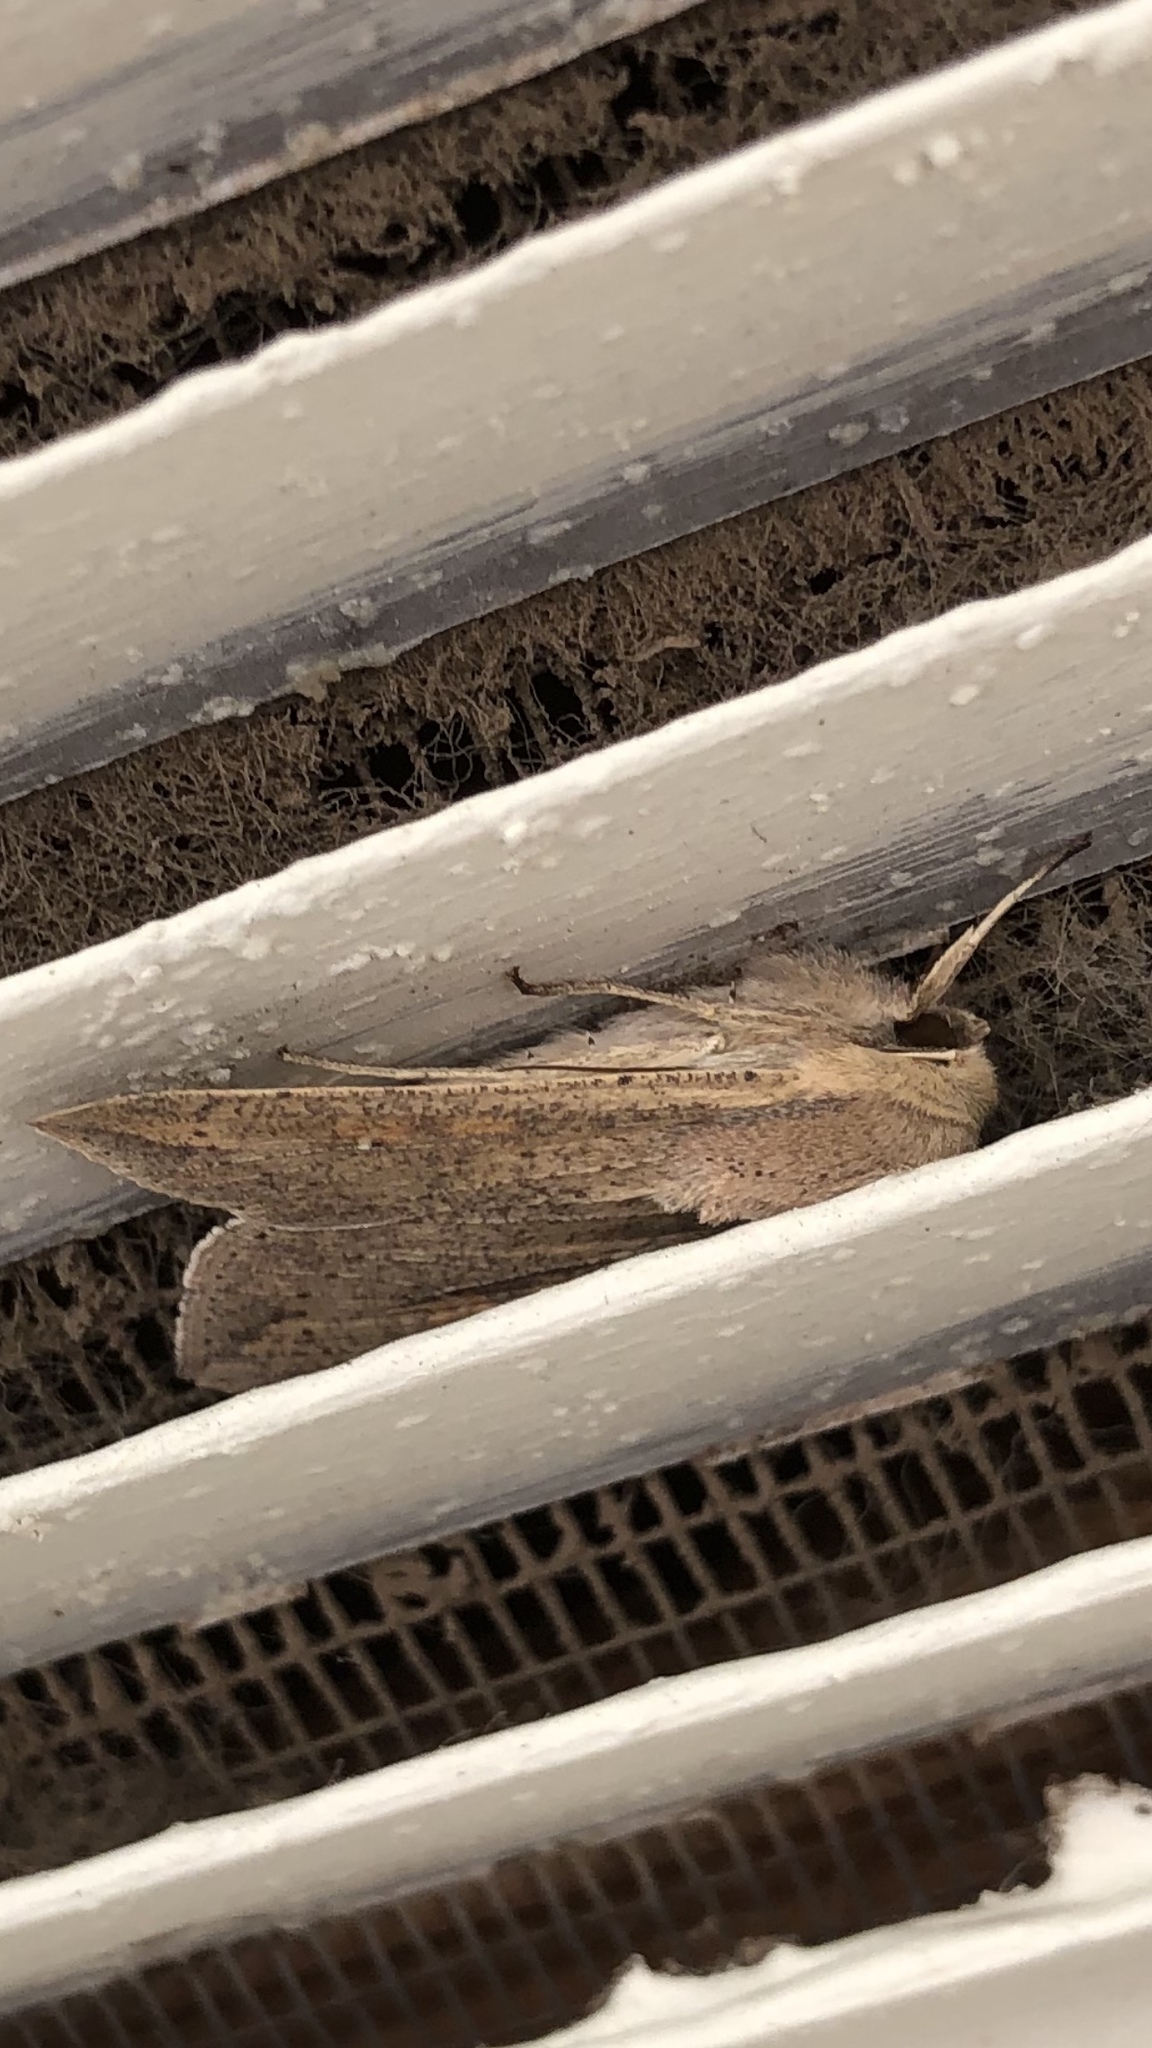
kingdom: Animalia
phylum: Arthropoda
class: Insecta
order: Lepidoptera
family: Noctuidae
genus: Mythimna
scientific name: Mythimna unipuncta
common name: White-speck
